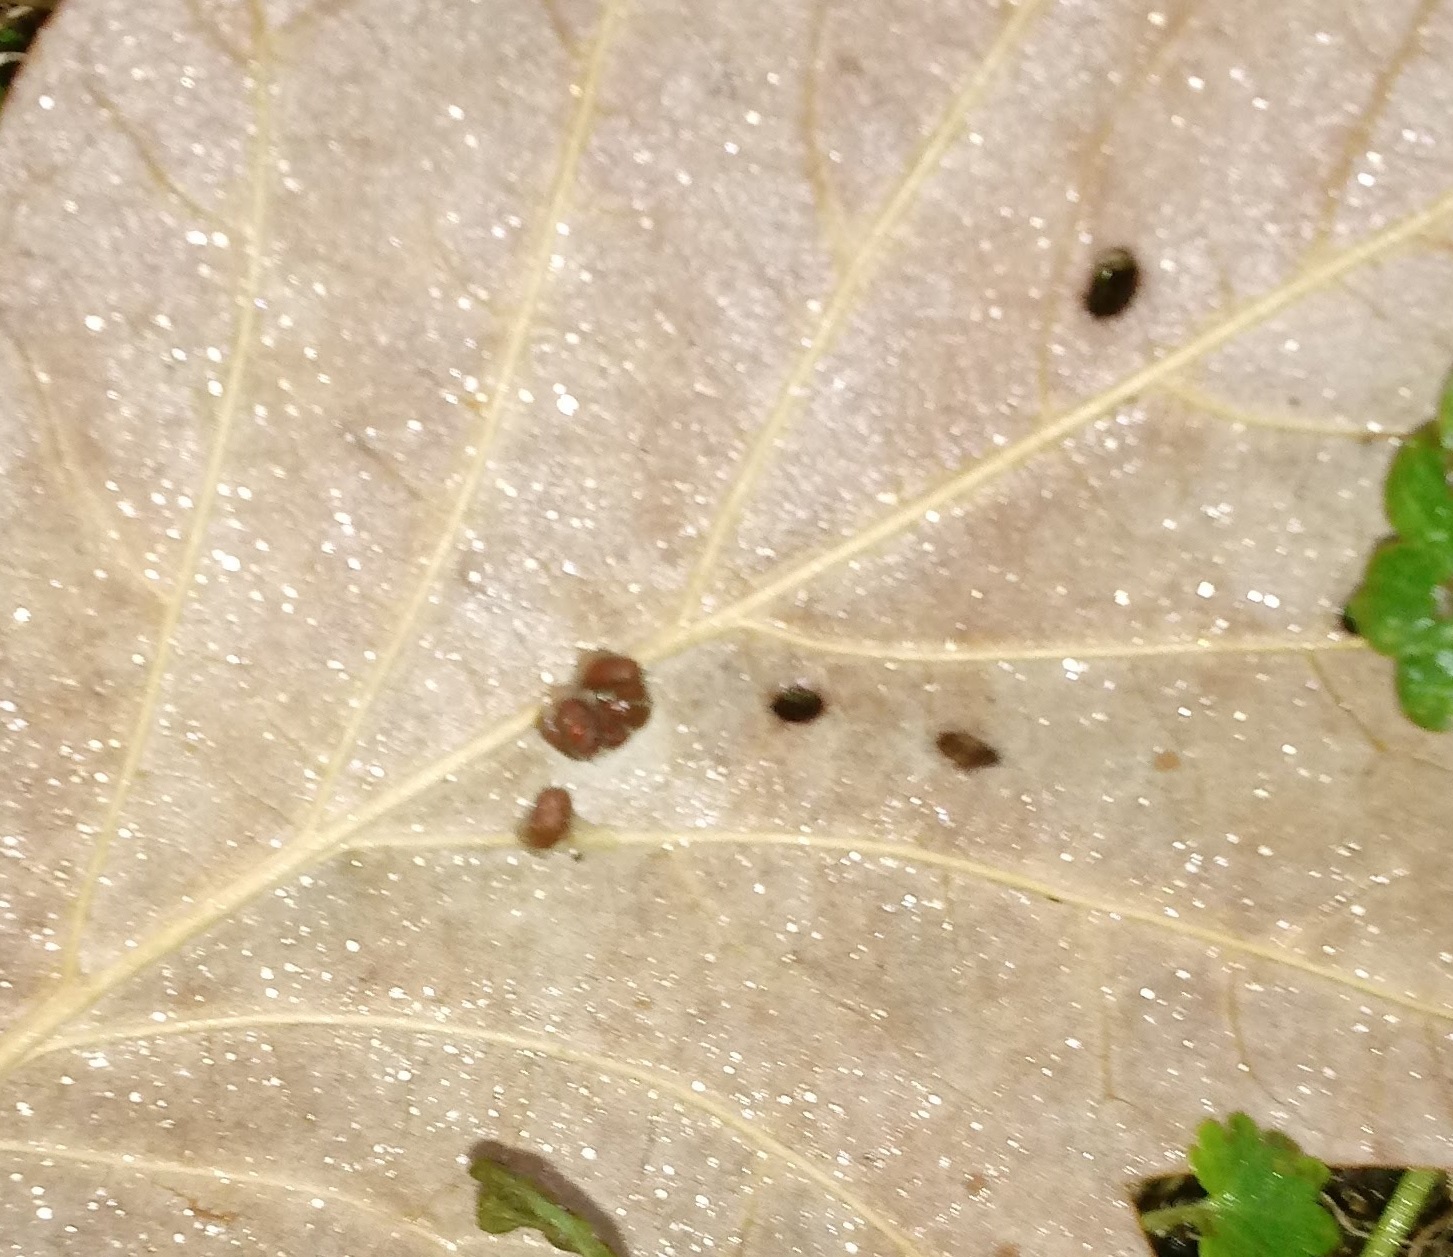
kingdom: Animalia
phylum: Arthropoda
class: Insecta
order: Hymenoptera
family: Cynipidae
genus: Andricus
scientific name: Andricus Druon ignotum
